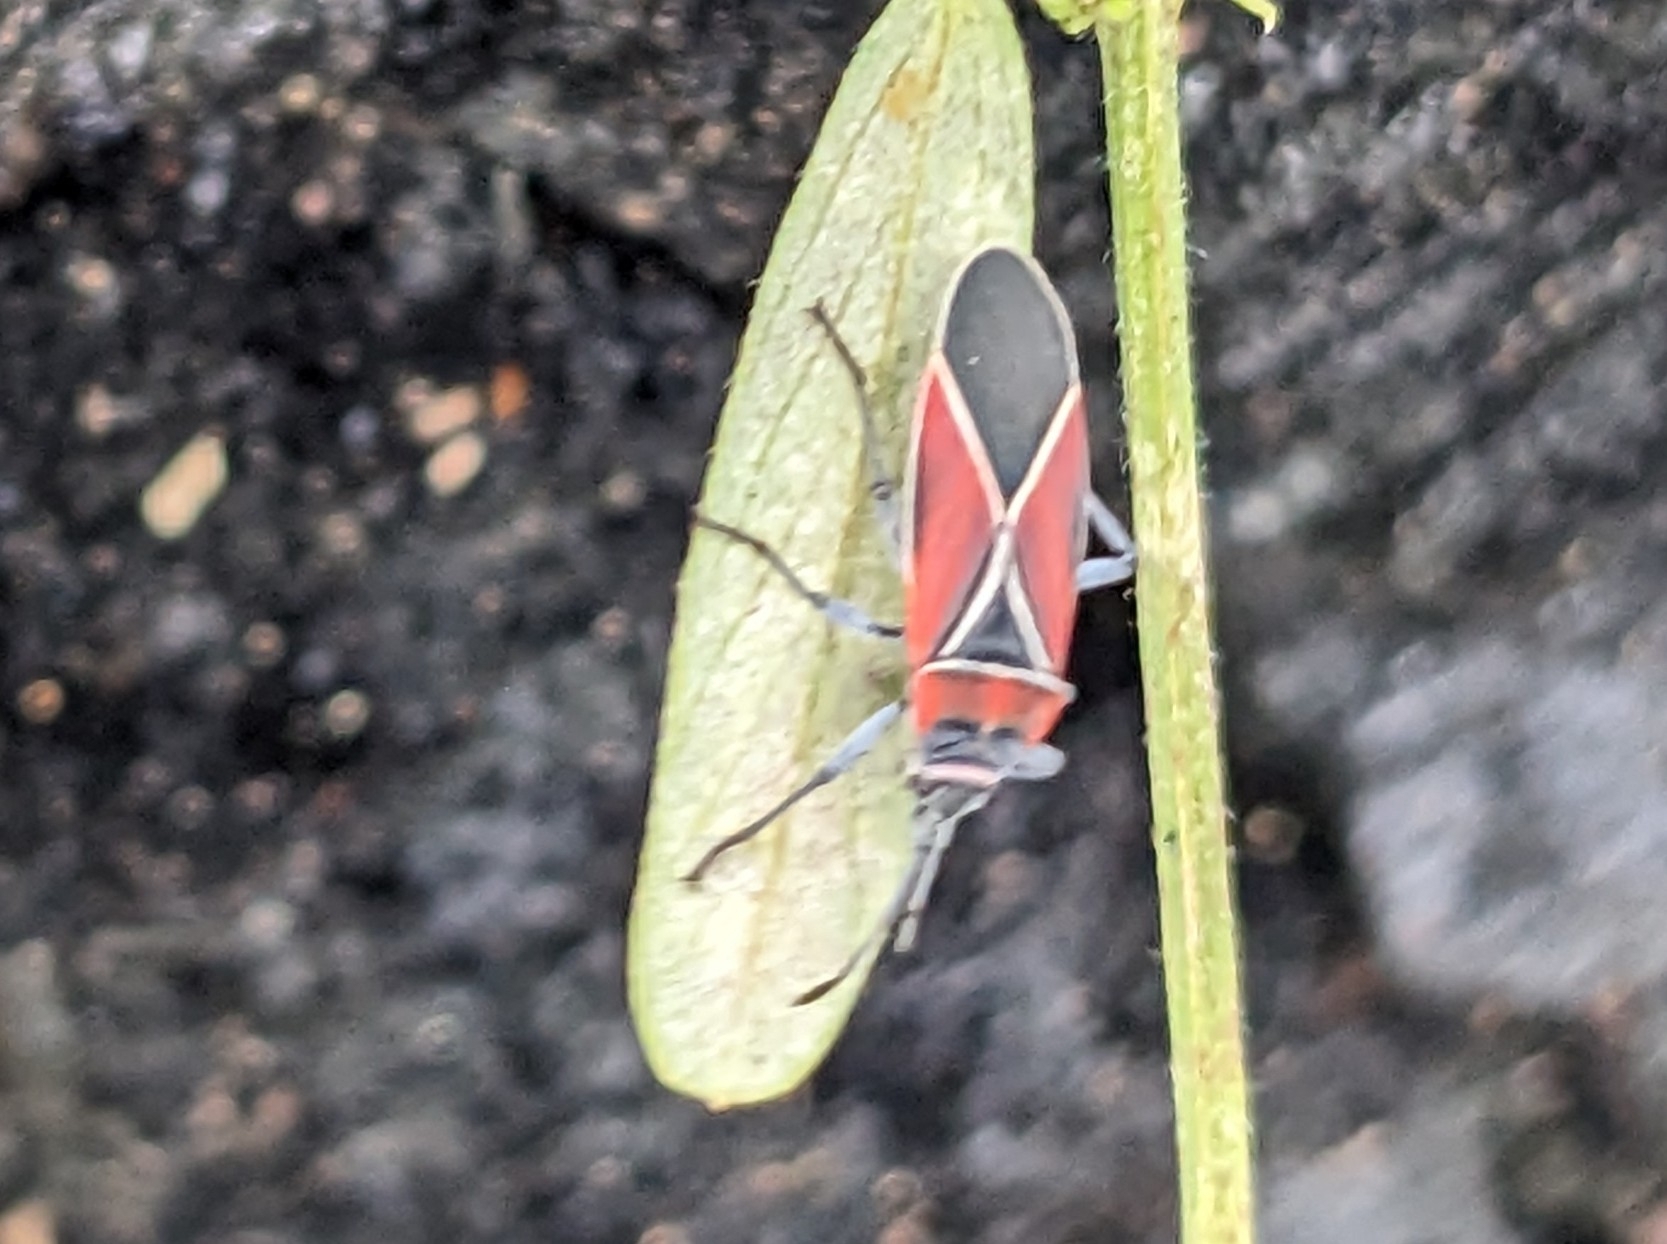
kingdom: Animalia
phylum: Arthropoda
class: Insecta
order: Hemiptera
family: Lygaeidae
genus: Neacoryphus
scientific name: Neacoryphus bicrucis
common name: Lygaeid bug
